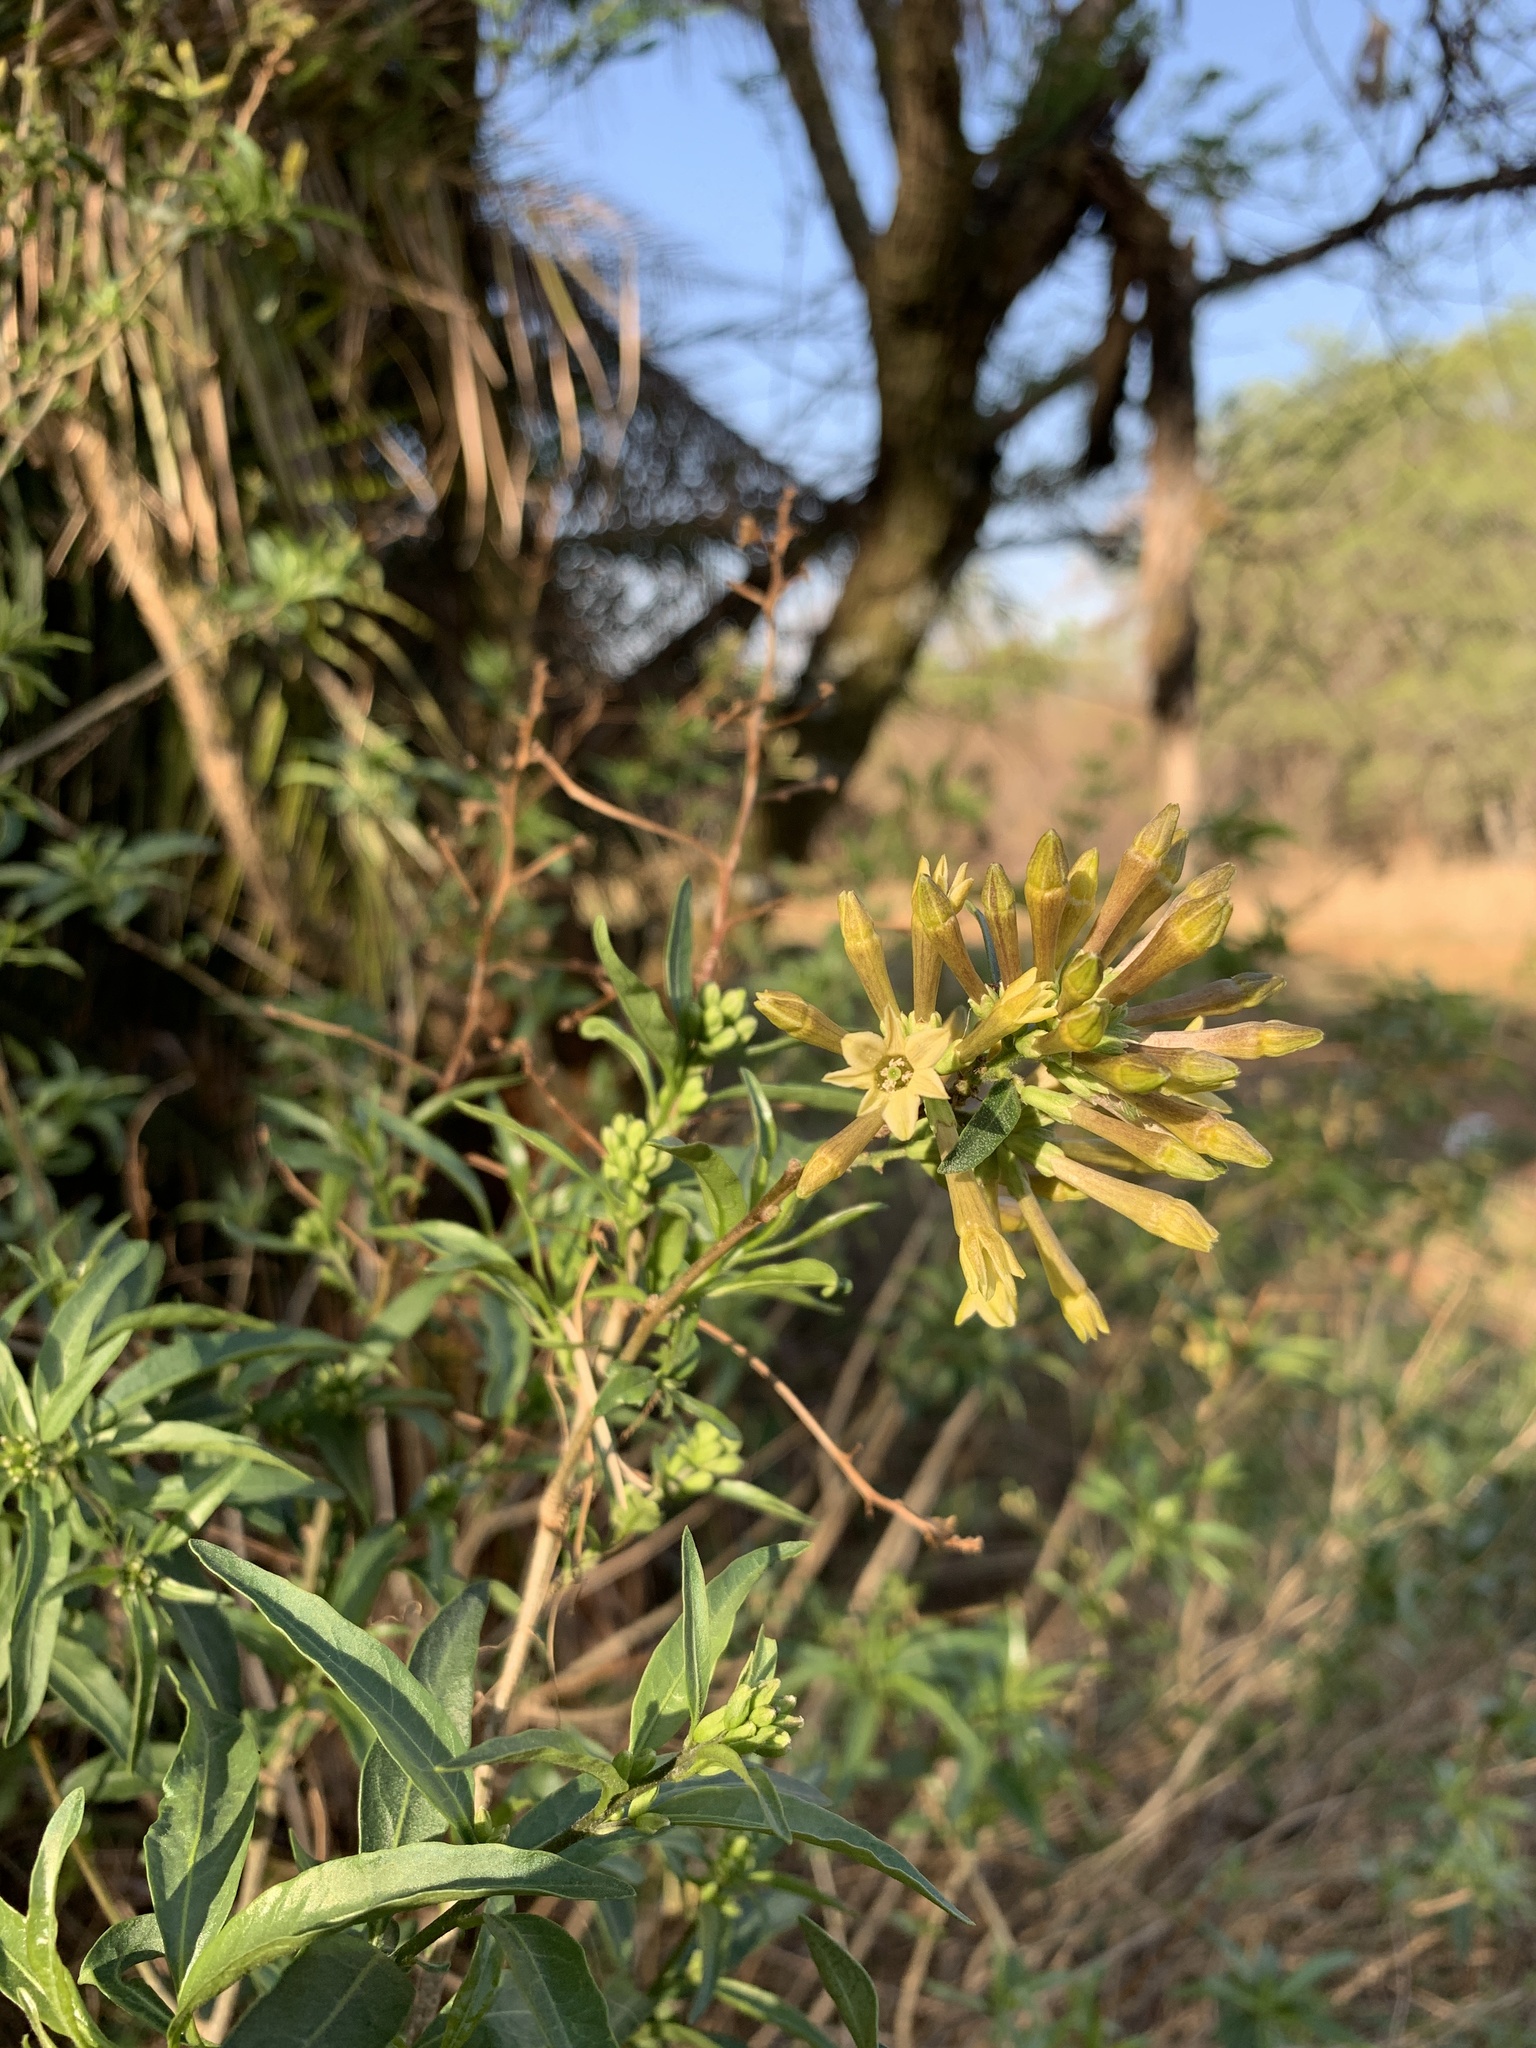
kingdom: Plantae
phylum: Tracheophyta
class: Magnoliopsida
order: Solanales
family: Solanaceae
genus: Cestrum
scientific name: Cestrum parqui
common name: Chilean cestrum
